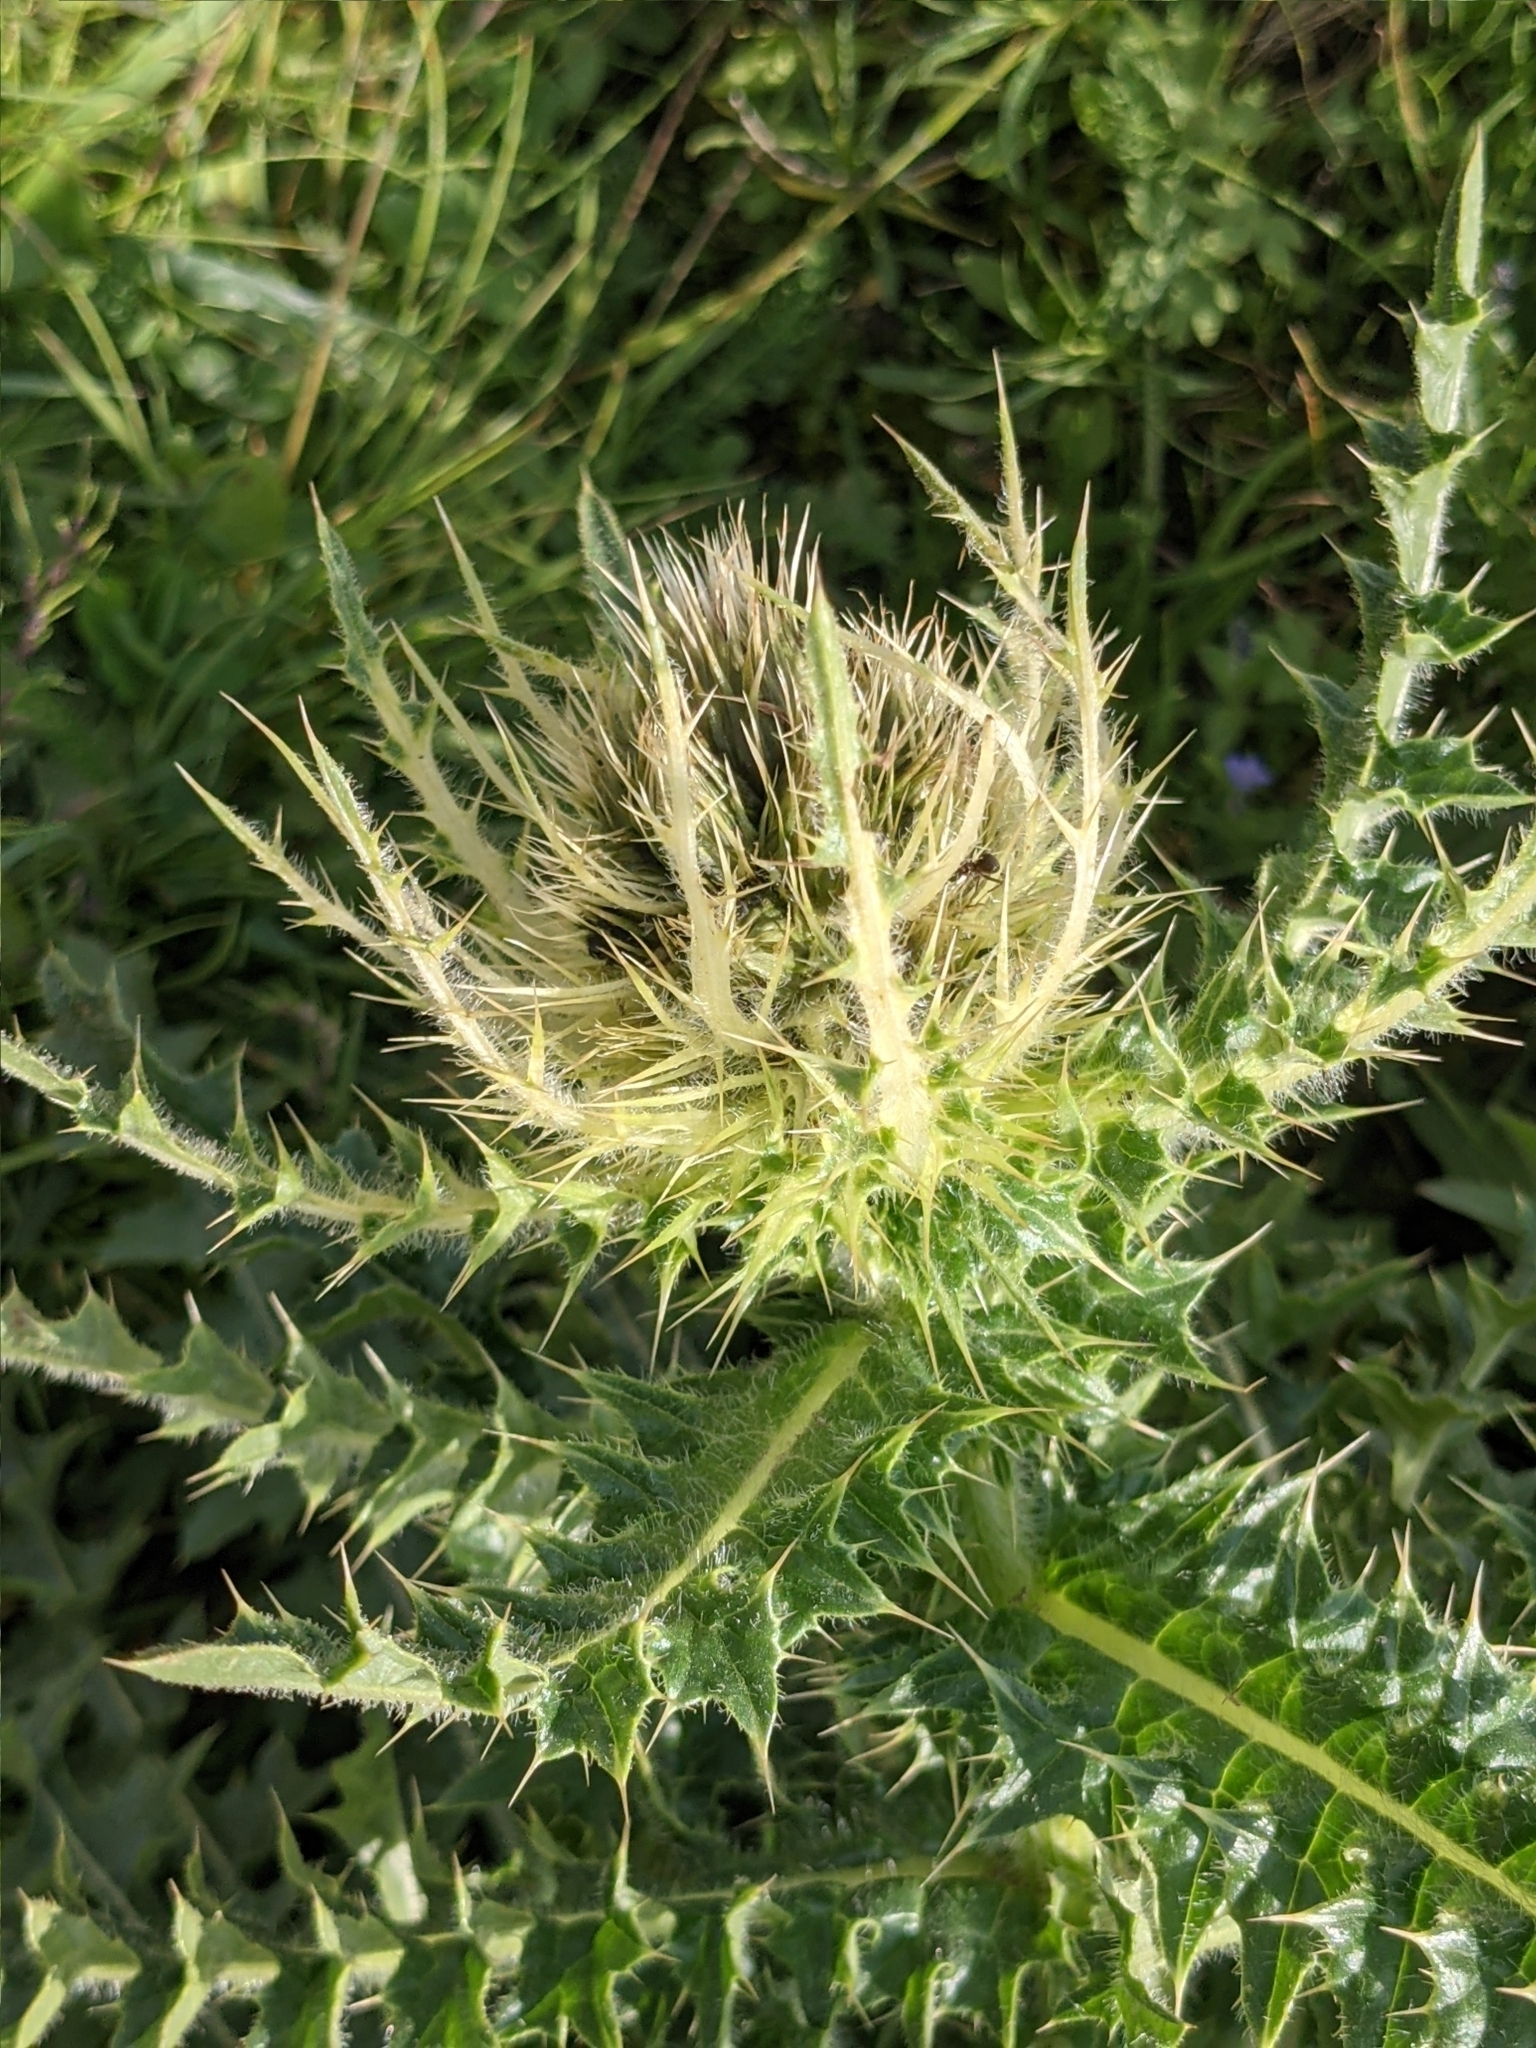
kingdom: Plantae
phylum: Tracheophyta
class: Magnoliopsida
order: Asterales
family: Asteraceae
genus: Cirsium
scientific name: Cirsium spinosissimum
